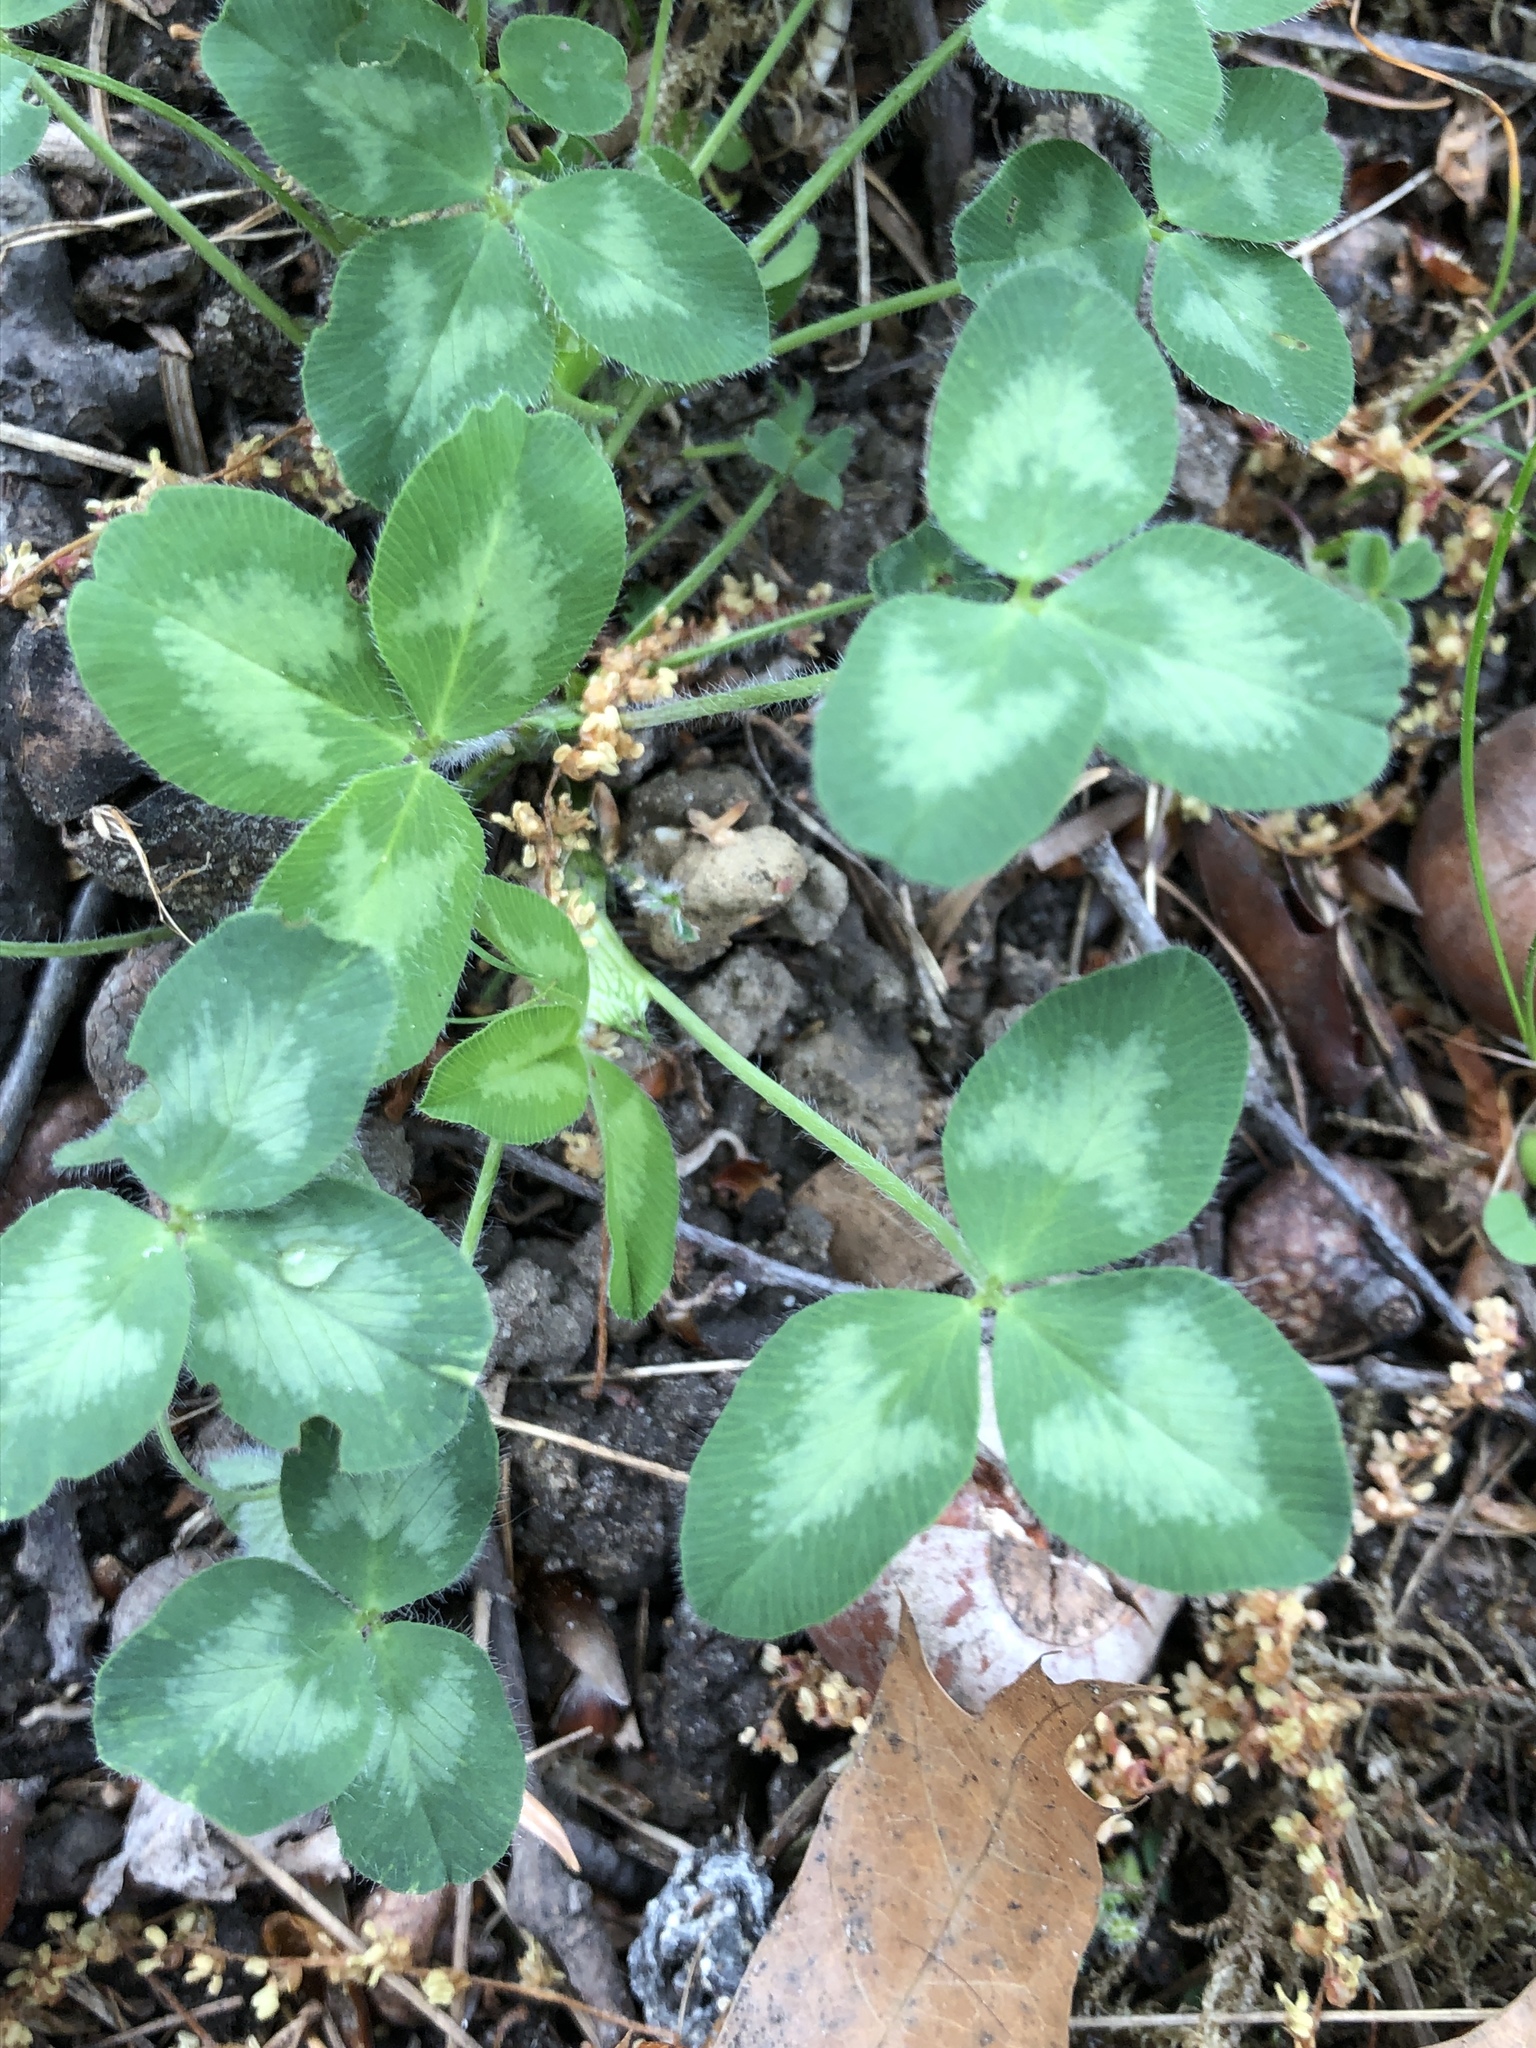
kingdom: Plantae
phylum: Tracheophyta
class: Magnoliopsida
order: Fabales
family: Fabaceae
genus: Trifolium
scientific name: Trifolium pratense
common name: Red clover
